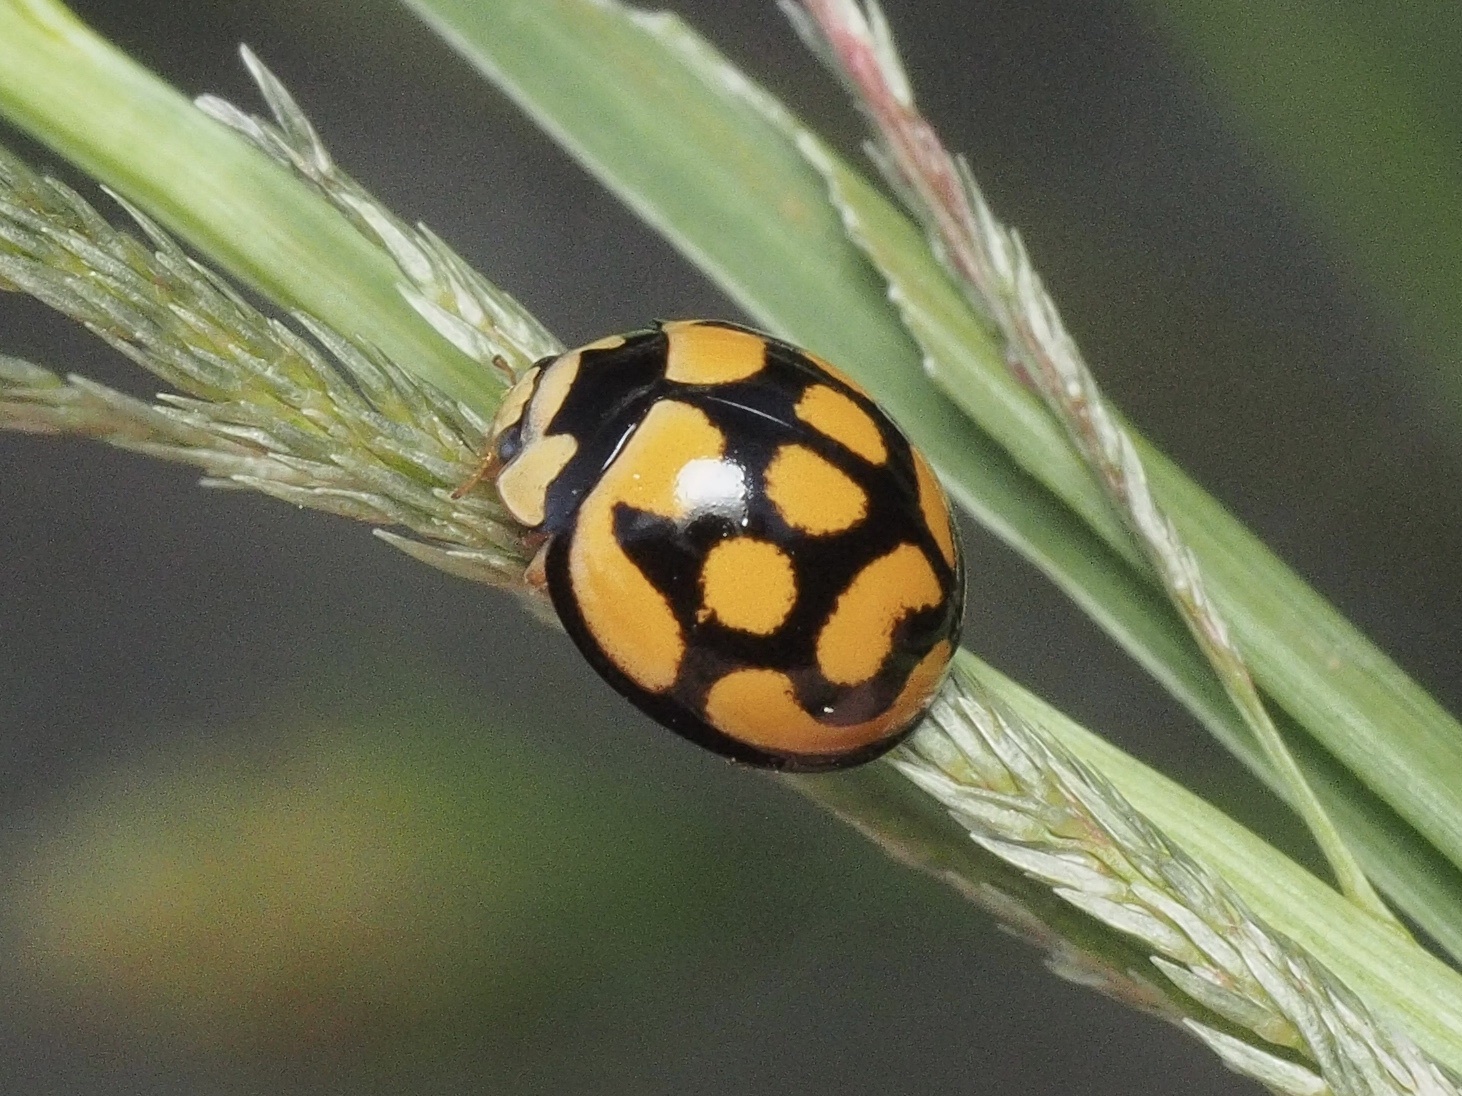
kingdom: Animalia
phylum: Arthropoda
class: Insecta
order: Coleoptera
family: Coccinellidae
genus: Cheilomenes
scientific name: Cheilomenes lunata
